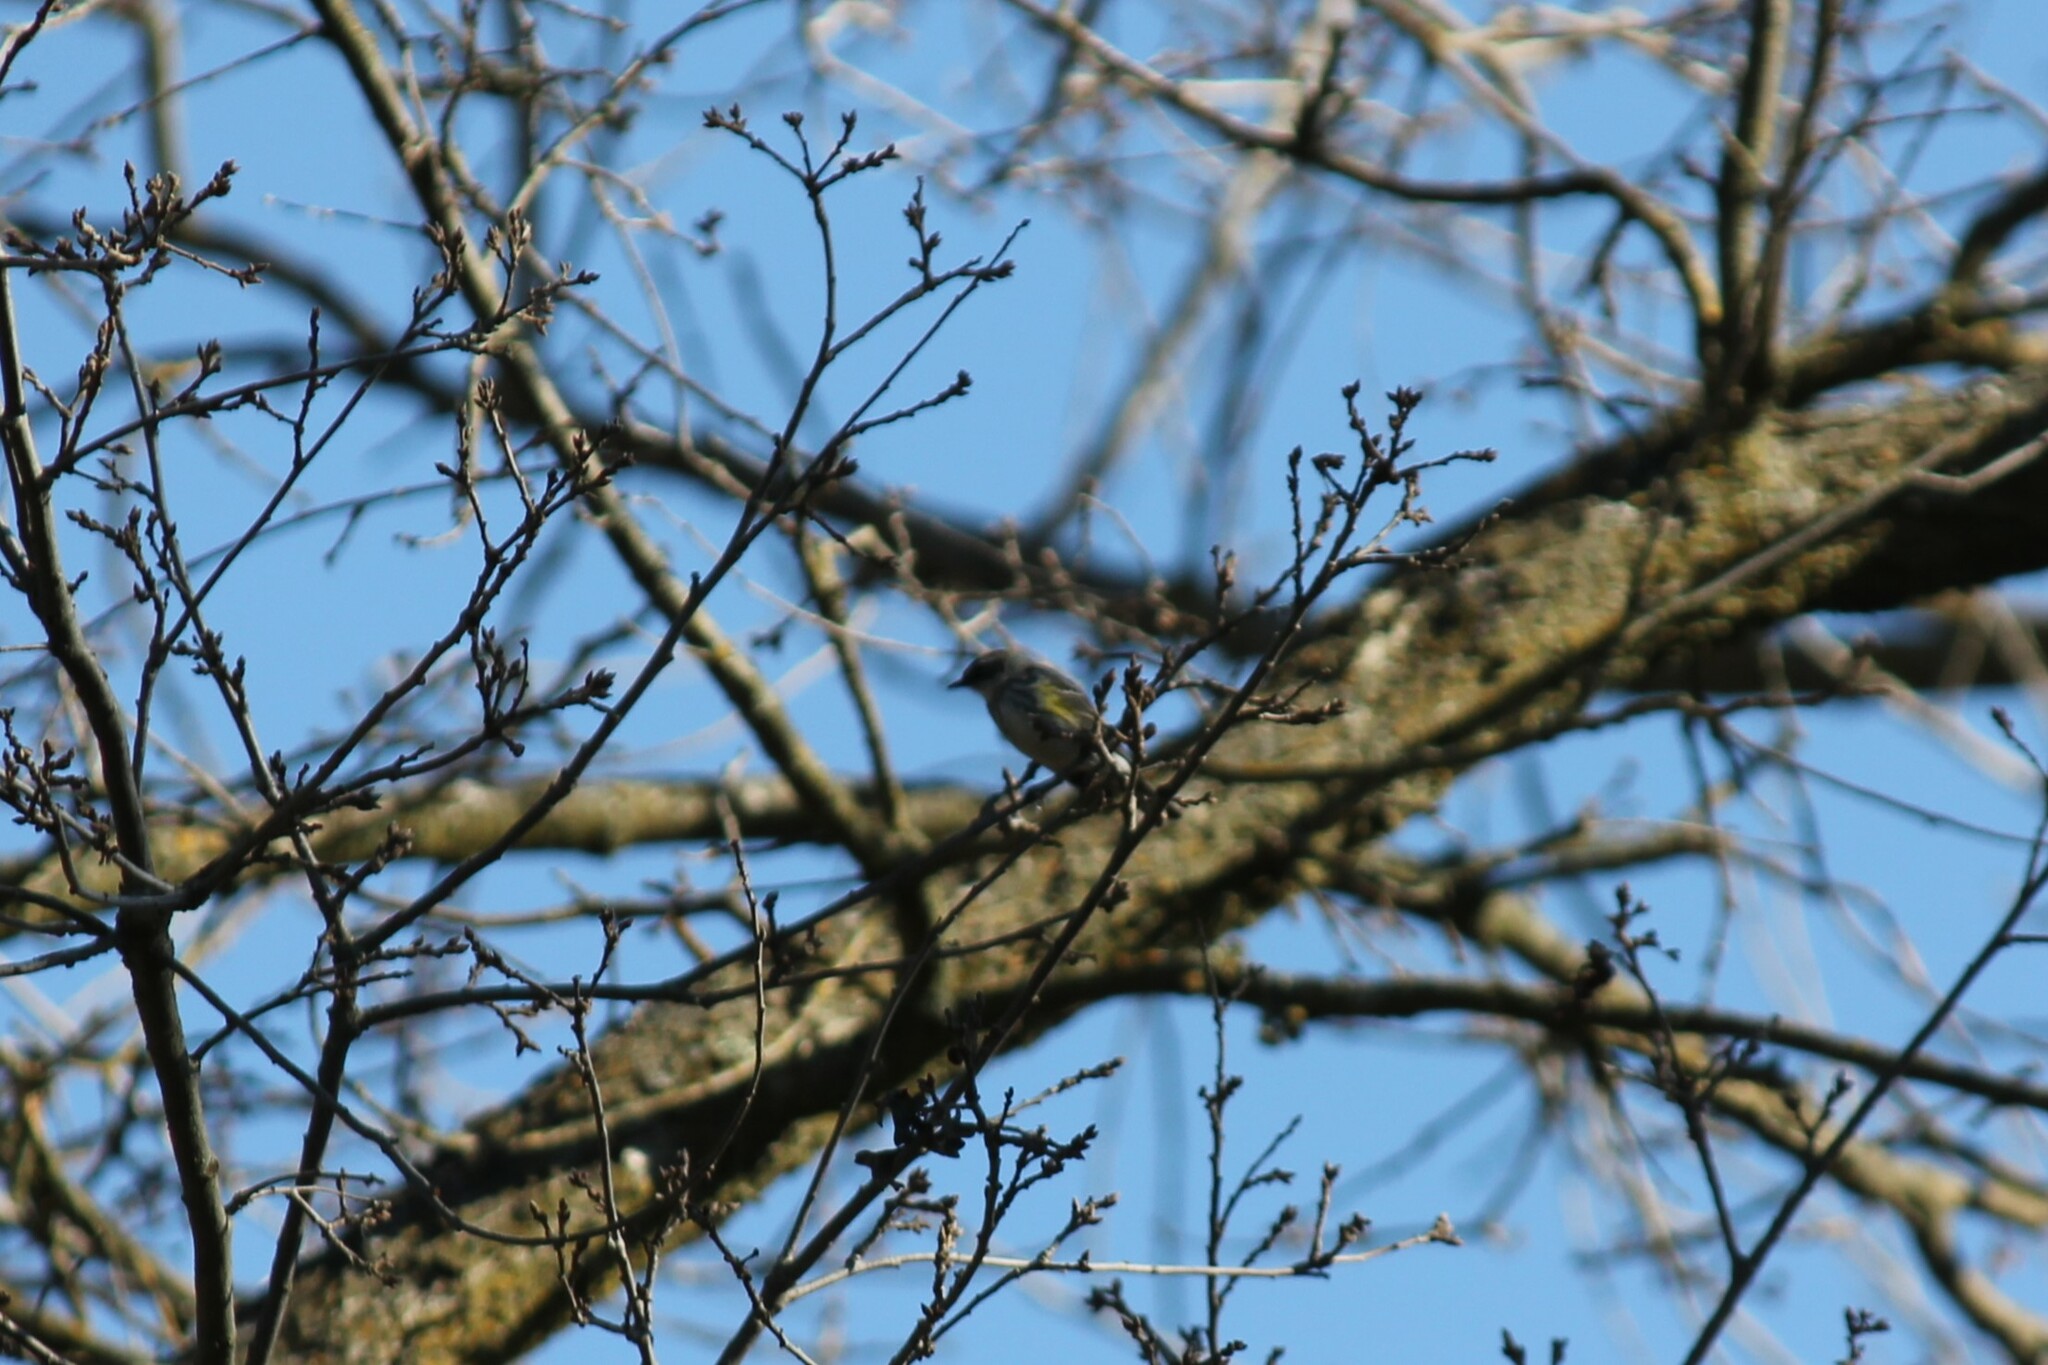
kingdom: Animalia
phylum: Chordata
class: Aves
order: Passeriformes
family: Parulidae
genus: Setophaga
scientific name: Setophaga coronata
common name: Myrtle warbler
